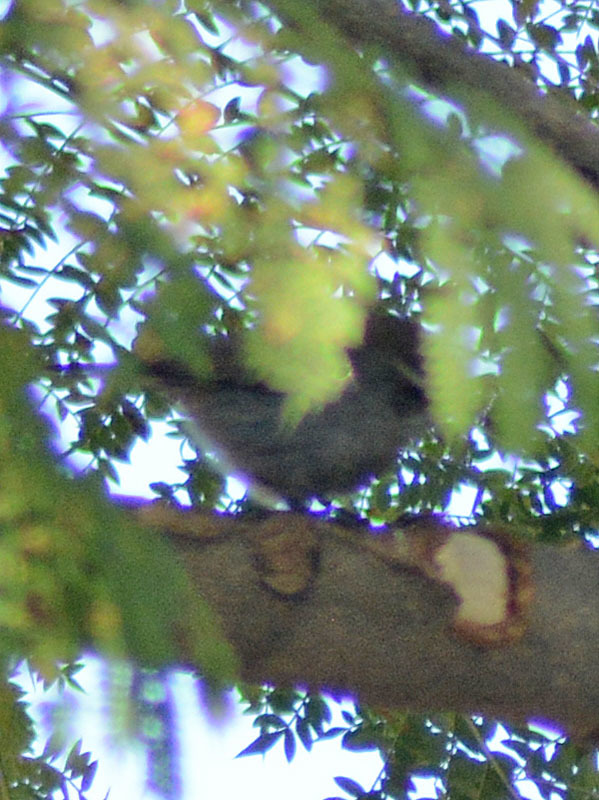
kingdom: Animalia
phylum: Chordata
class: Aves
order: Passeriformes
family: Troglodytidae
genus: Thryomanes
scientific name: Thryomanes bewickii
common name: Bewick's wren
